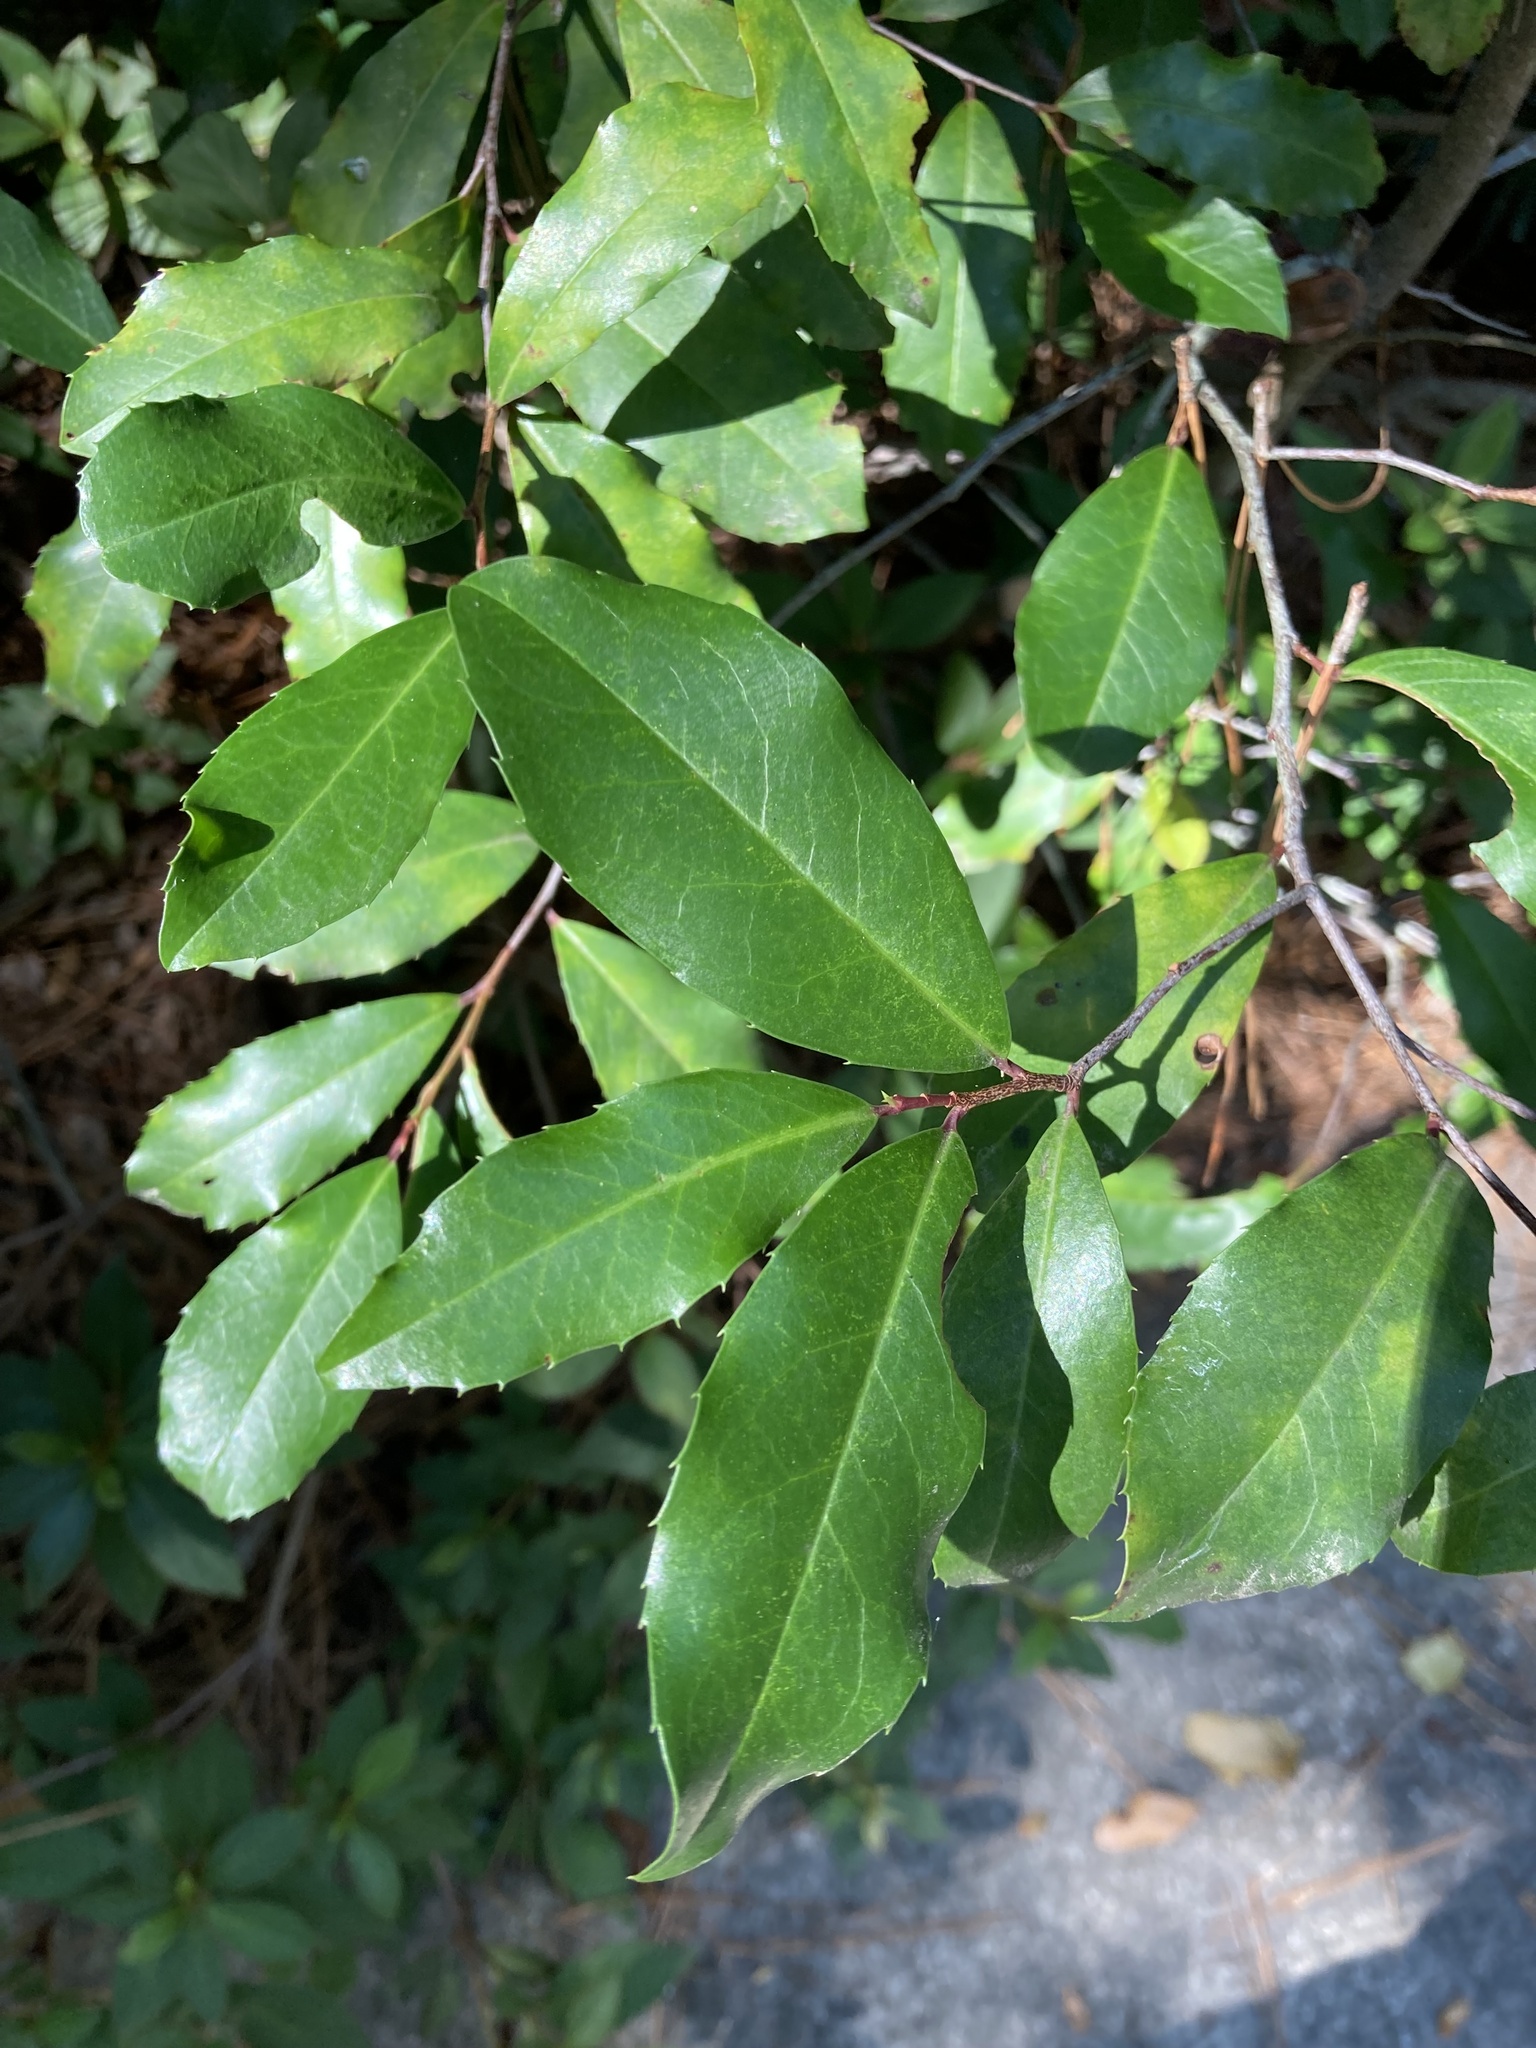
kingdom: Plantae
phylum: Tracheophyta
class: Magnoliopsida
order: Rosales
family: Rosaceae
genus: Prunus
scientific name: Prunus caroliniana
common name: Carolina laurel cherry
